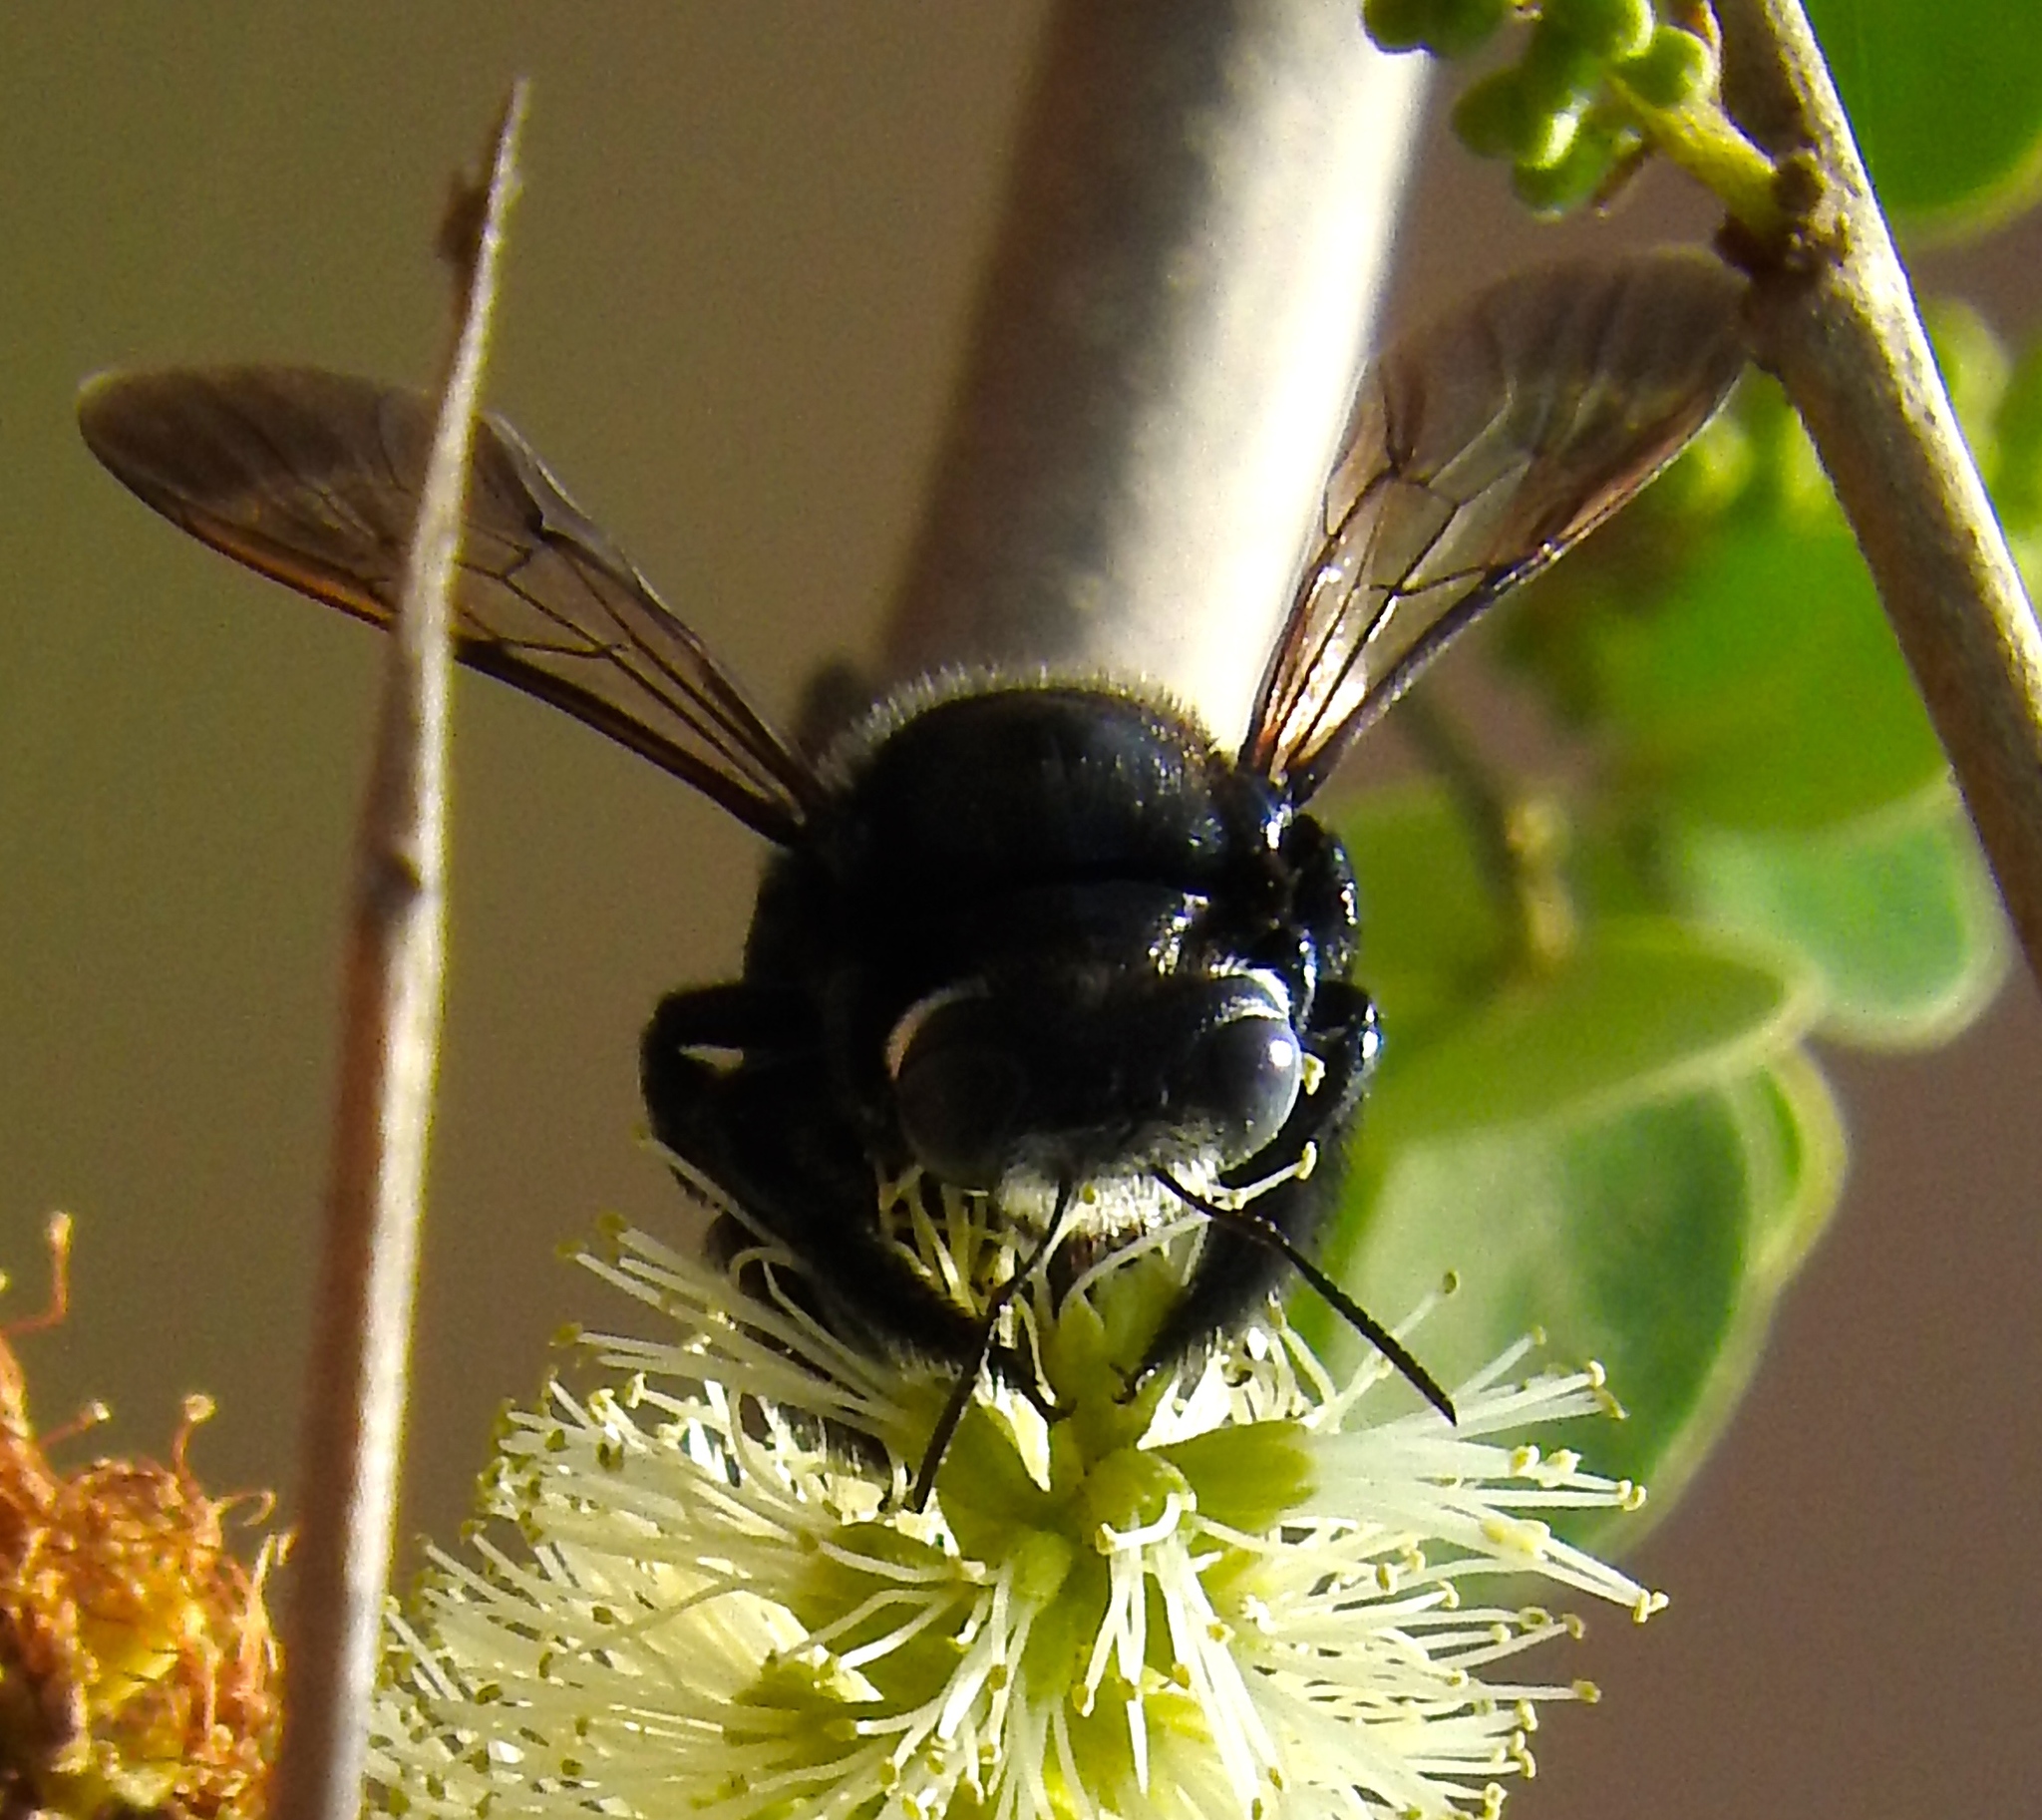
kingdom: Animalia
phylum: Arthropoda
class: Insecta
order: Hymenoptera
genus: Schonnherria
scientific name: Schonnherria
